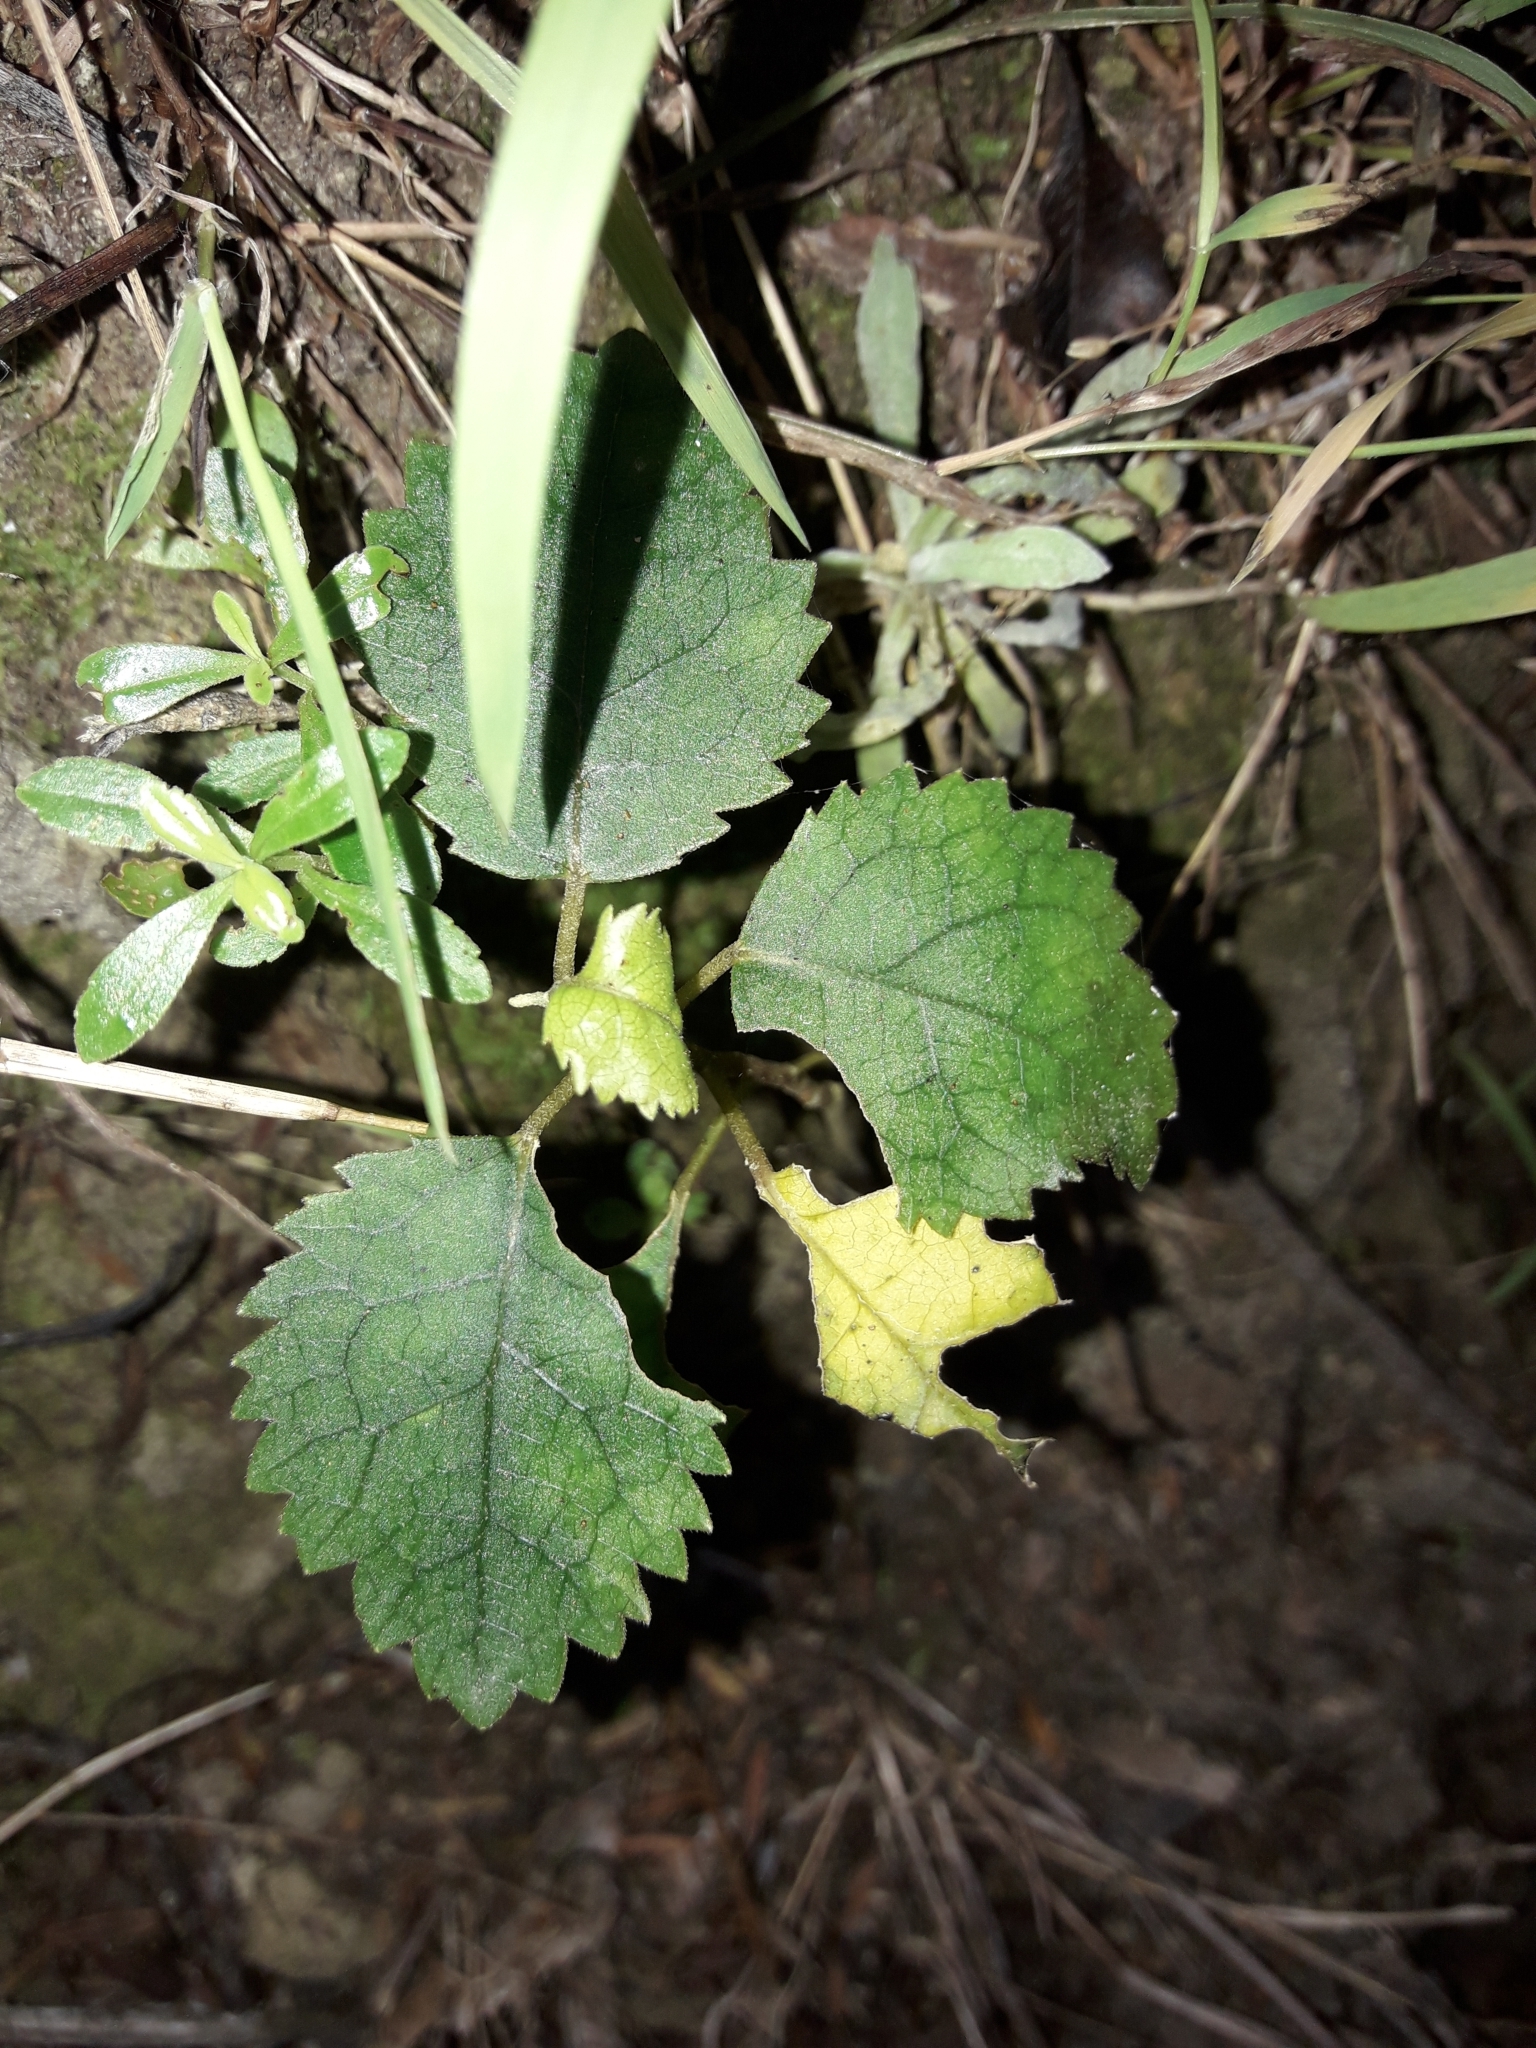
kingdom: Plantae
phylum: Tracheophyta
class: Magnoliopsida
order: Malvales
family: Malvaceae
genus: Hoheria
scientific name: Hoheria populnea
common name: Lacebark
